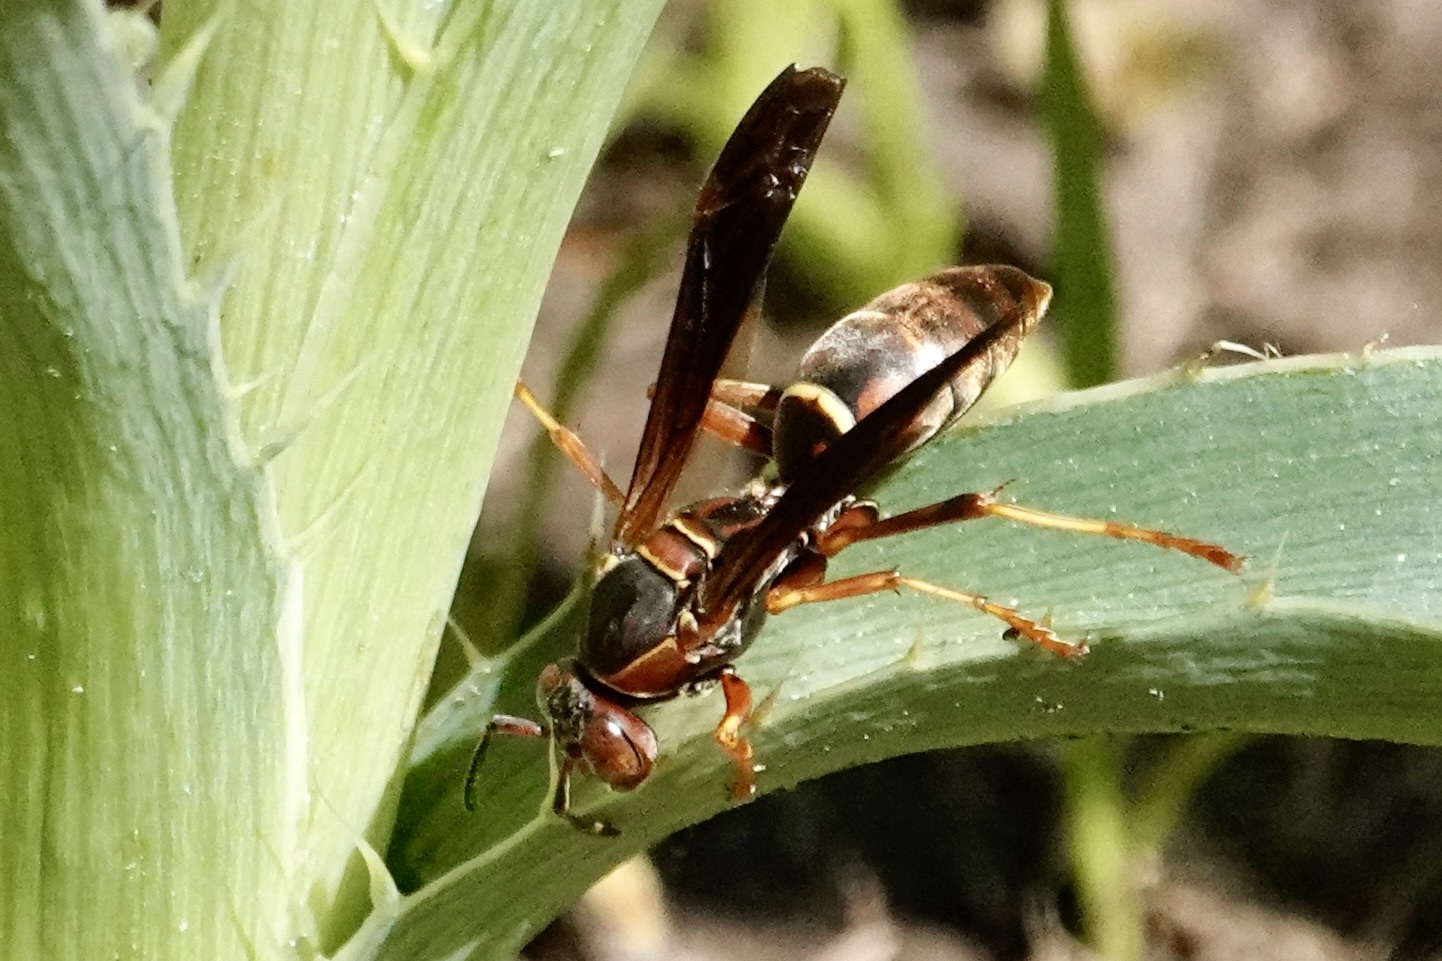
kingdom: Animalia
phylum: Arthropoda
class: Insecta
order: Hymenoptera
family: Eumenidae
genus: Polistes
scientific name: Polistes fuscatus
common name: Dark paper wasp
